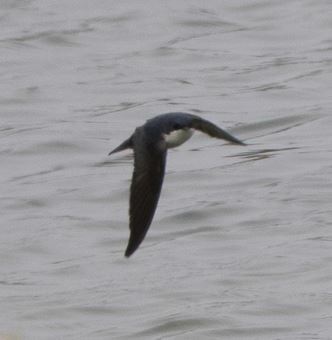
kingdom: Animalia
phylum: Chordata
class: Aves
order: Passeriformes
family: Hirundinidae
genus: Notiochelidon
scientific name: Notiochelidon cyanoleuca
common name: Blue-and-white swallow
